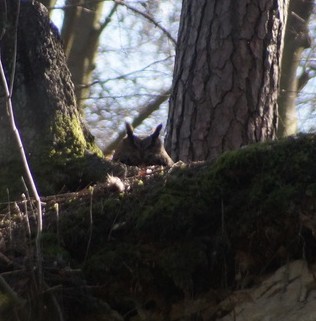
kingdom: Animalia
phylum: Chordata
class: Aves
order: Strigiformes
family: Strigidae
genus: Bubo
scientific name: Bubo bubo
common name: Eurasian eagle-owl
